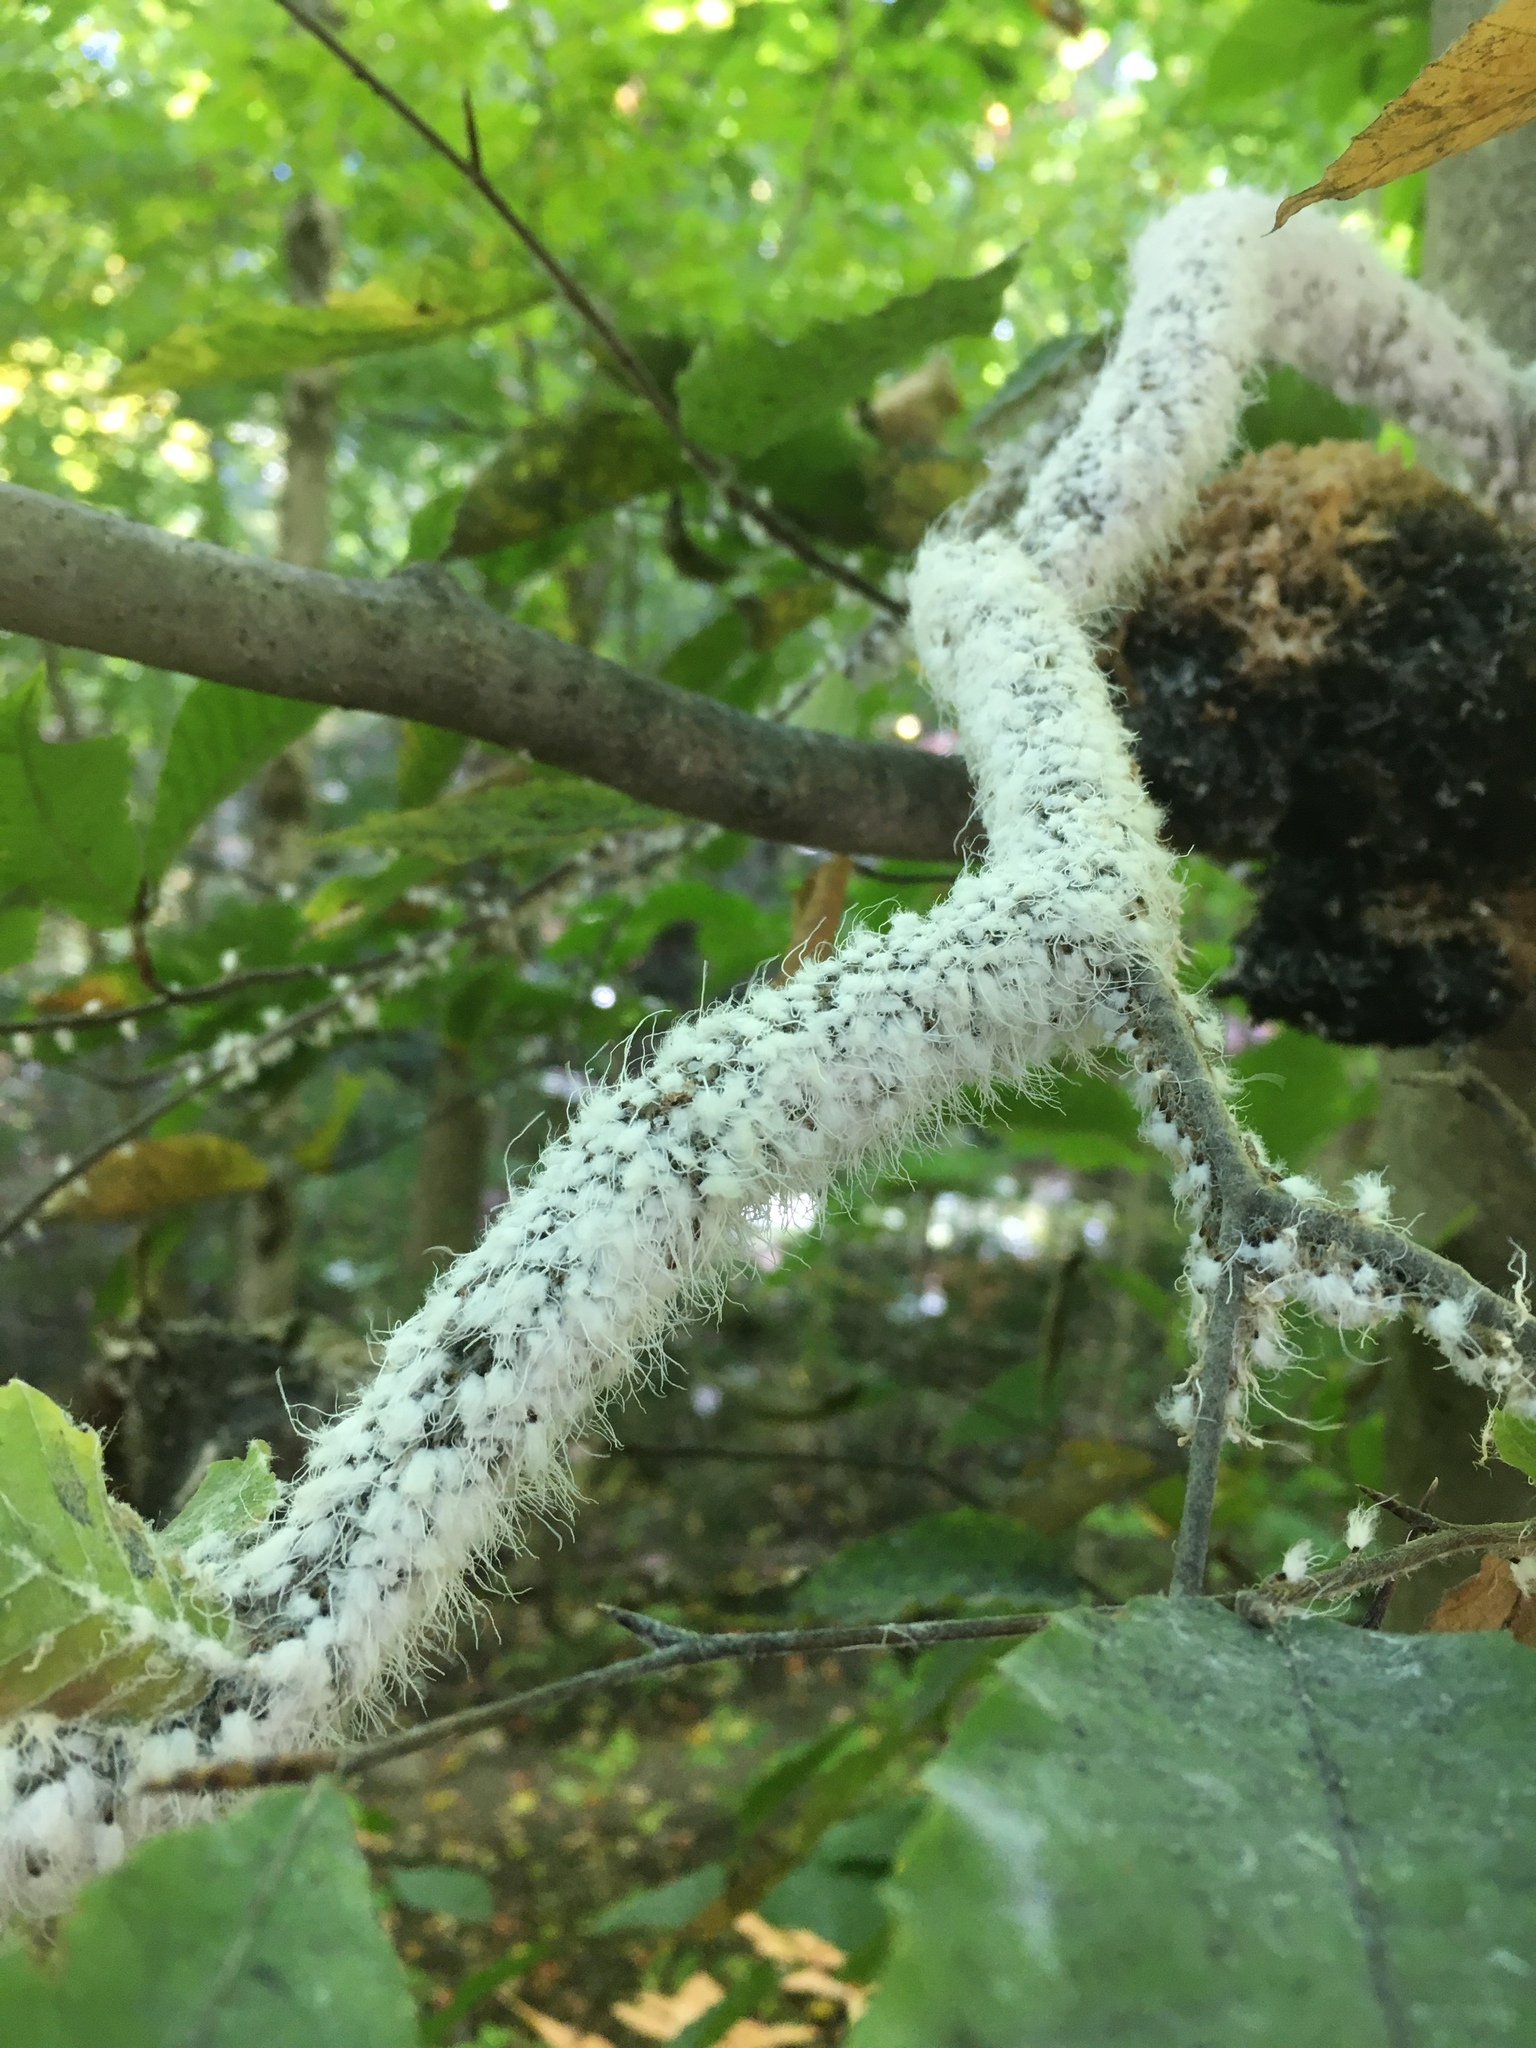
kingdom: Animalia
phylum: Arthropoda
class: Insecta
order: Hemiptera
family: Aphididae
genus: Grylloprociphilus
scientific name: Grylloprociphilus imbricator
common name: Beech blight aphid
